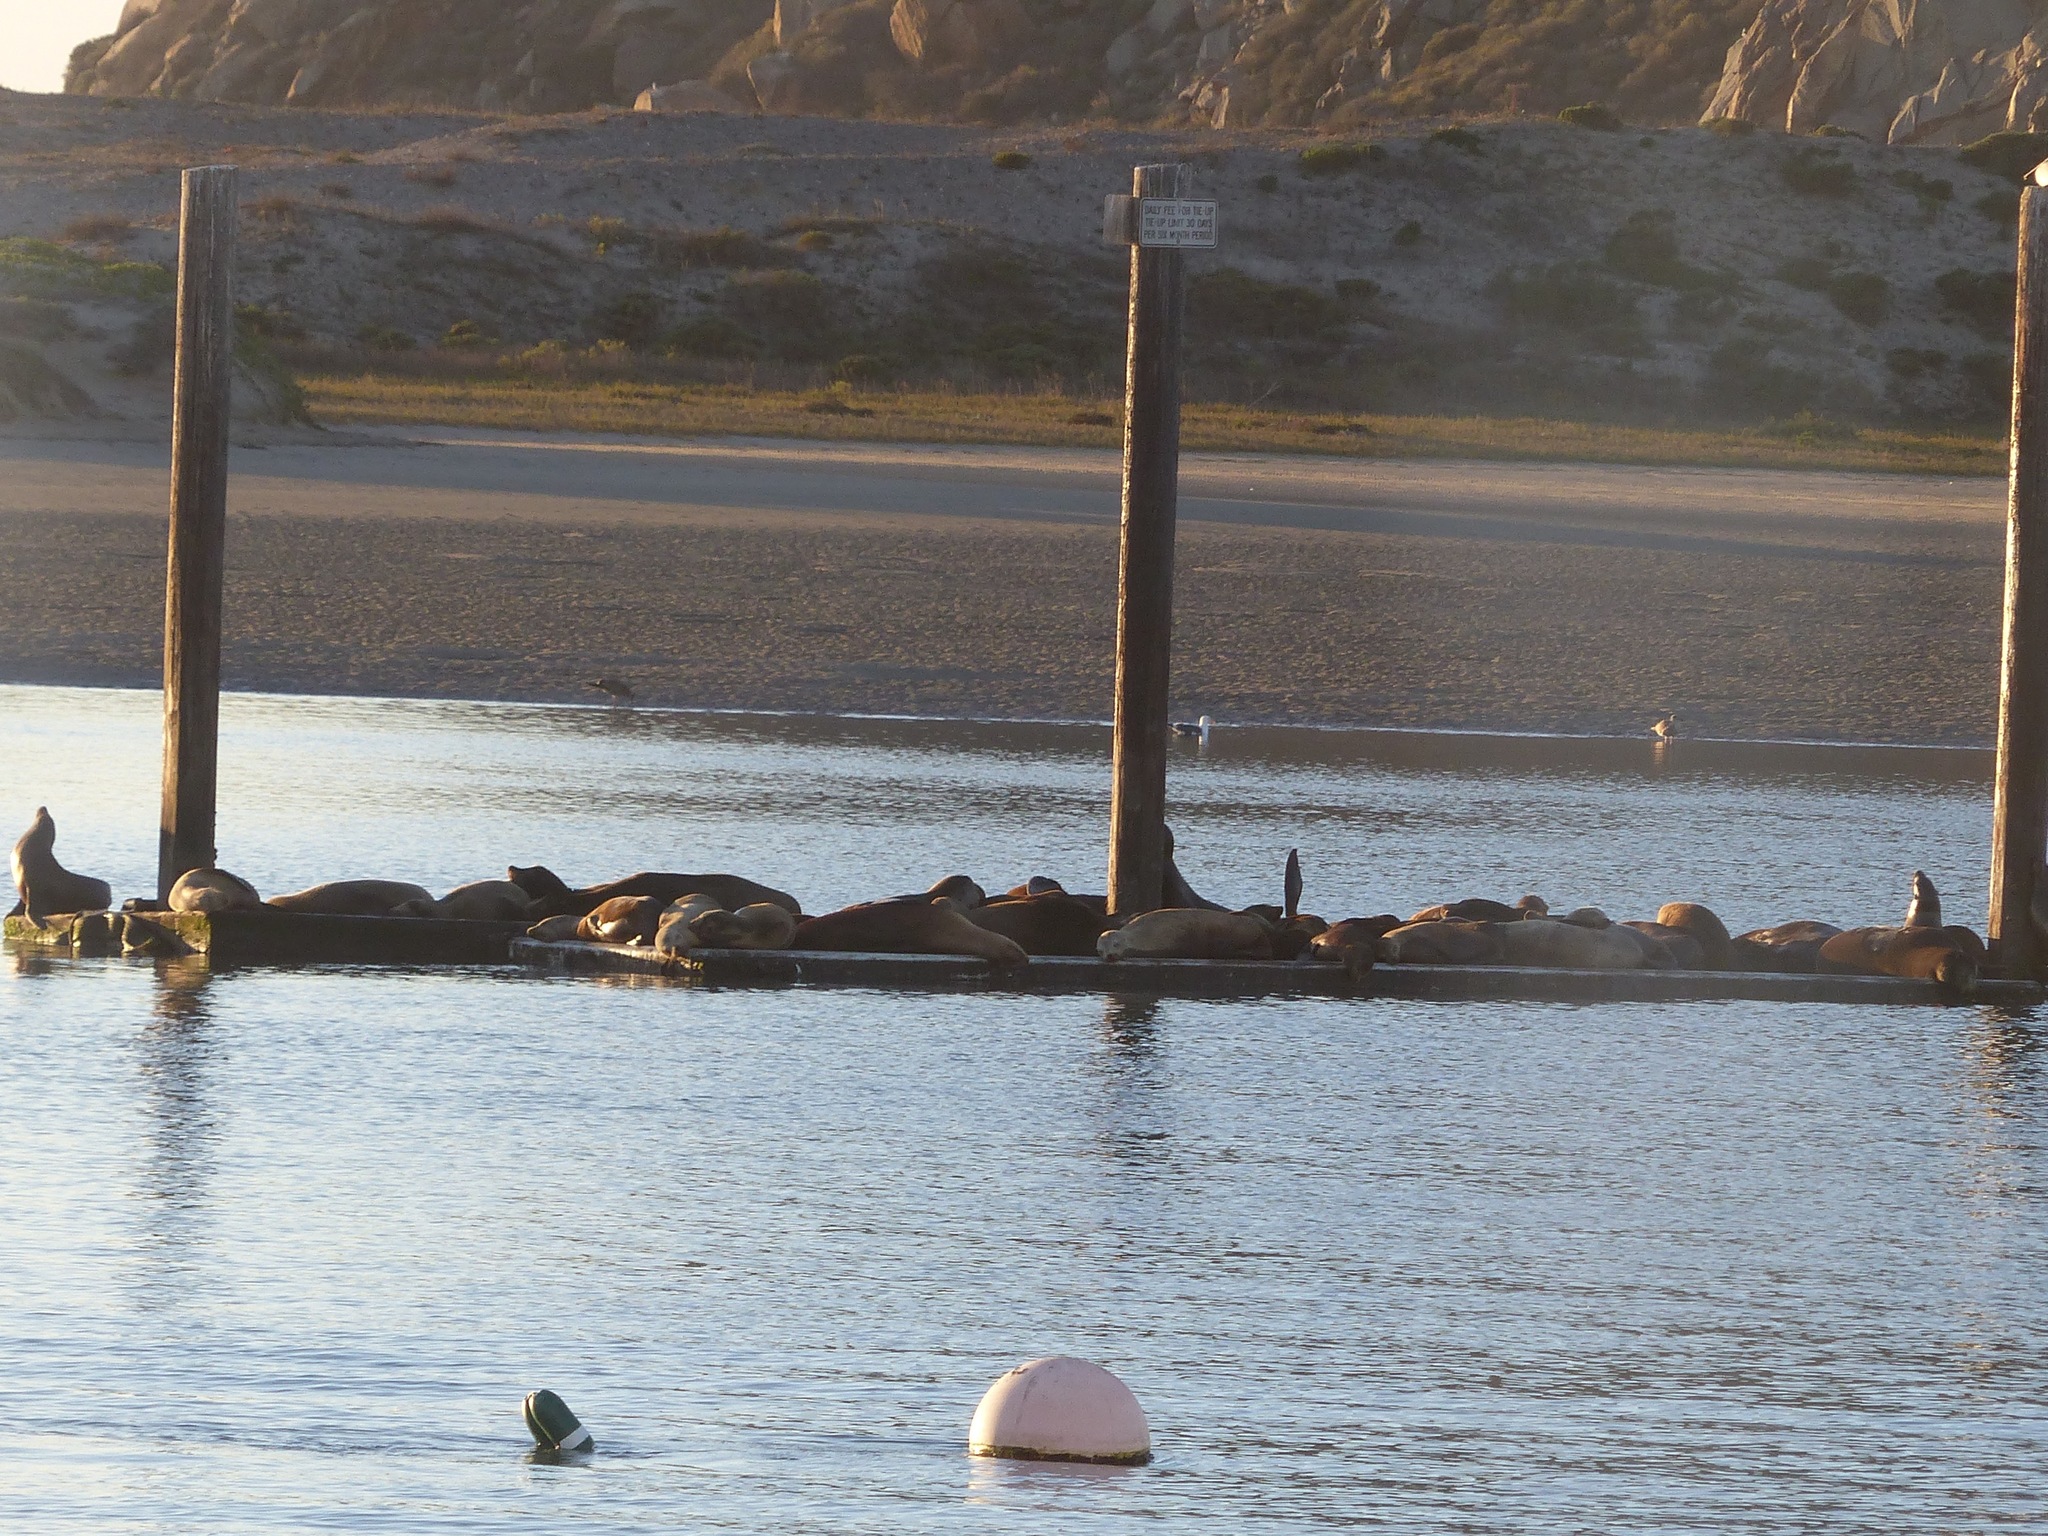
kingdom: Animalia
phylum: Chordata
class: Mammalia
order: Carnivora
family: Otariidae
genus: Zalophus
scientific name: Zalophus californianus
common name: California sea lion
